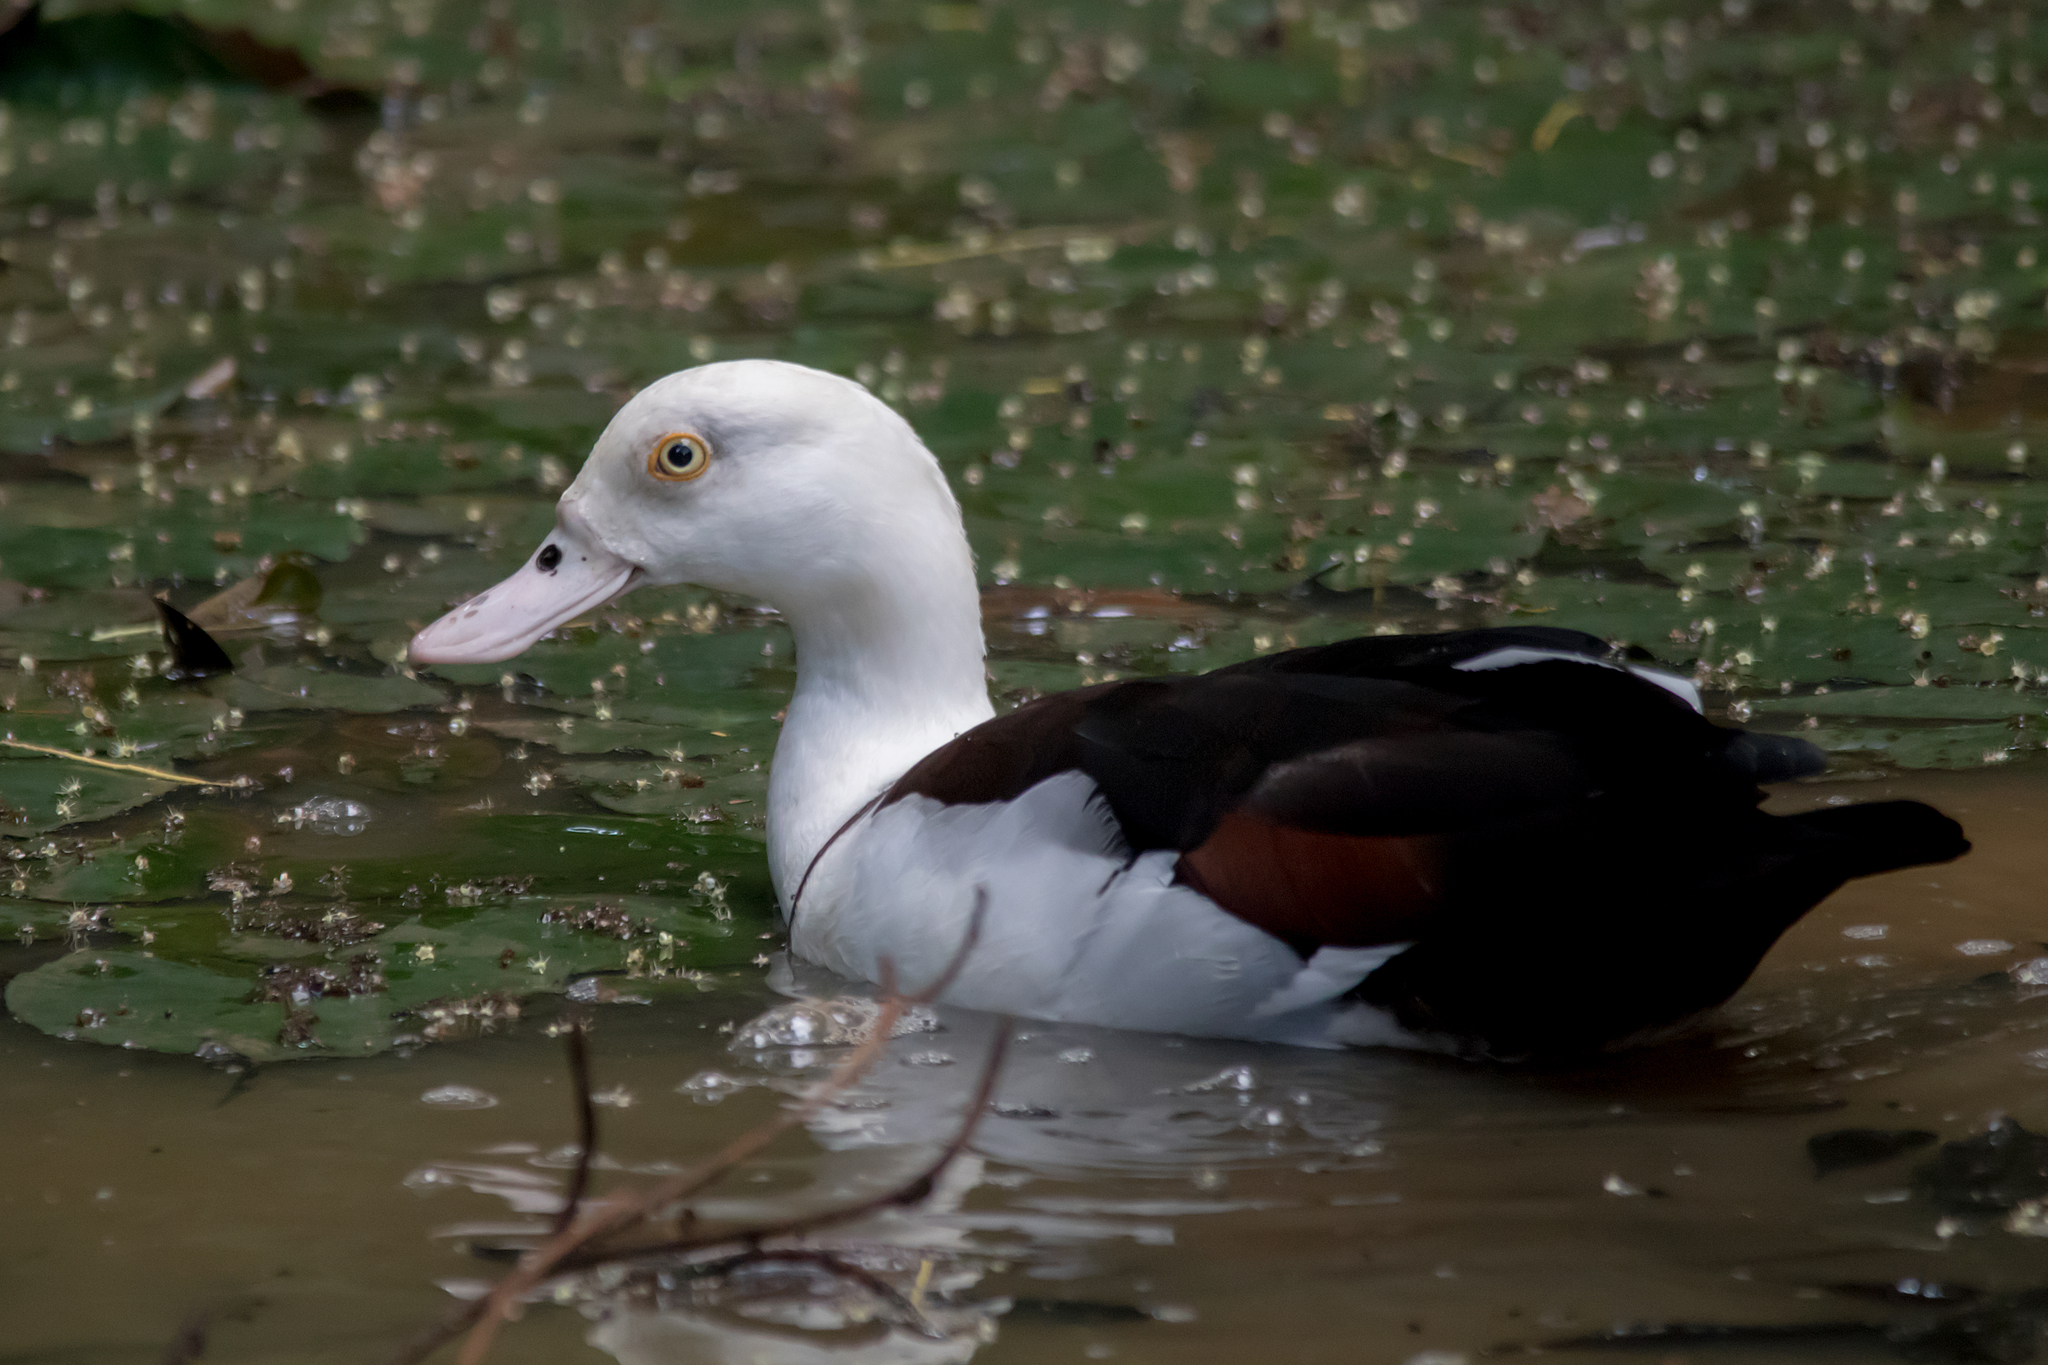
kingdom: Animalia
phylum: Chordata
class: Aves
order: Anseriformes
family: Anatidae
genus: Radjah
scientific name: Radjah radjah
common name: Radjah shelduck
